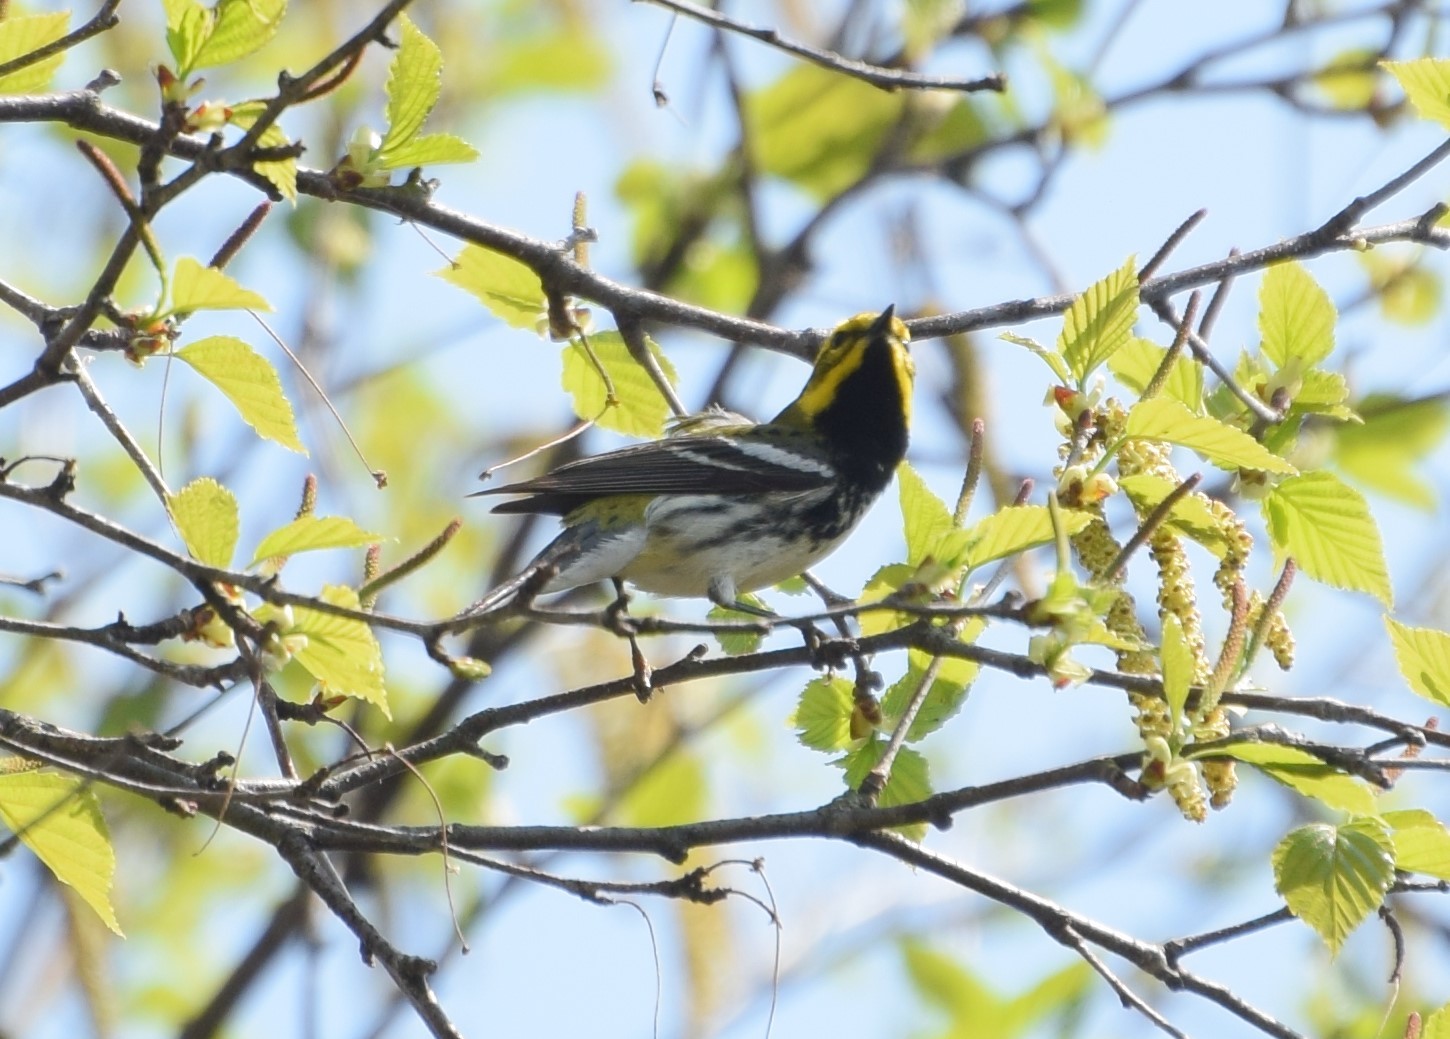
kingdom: Animalia
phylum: Chordata
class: Aves
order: Passeriformes
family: Parulidae
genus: Setophaga
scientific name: Setophaga virens
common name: Black-throated green warbler
